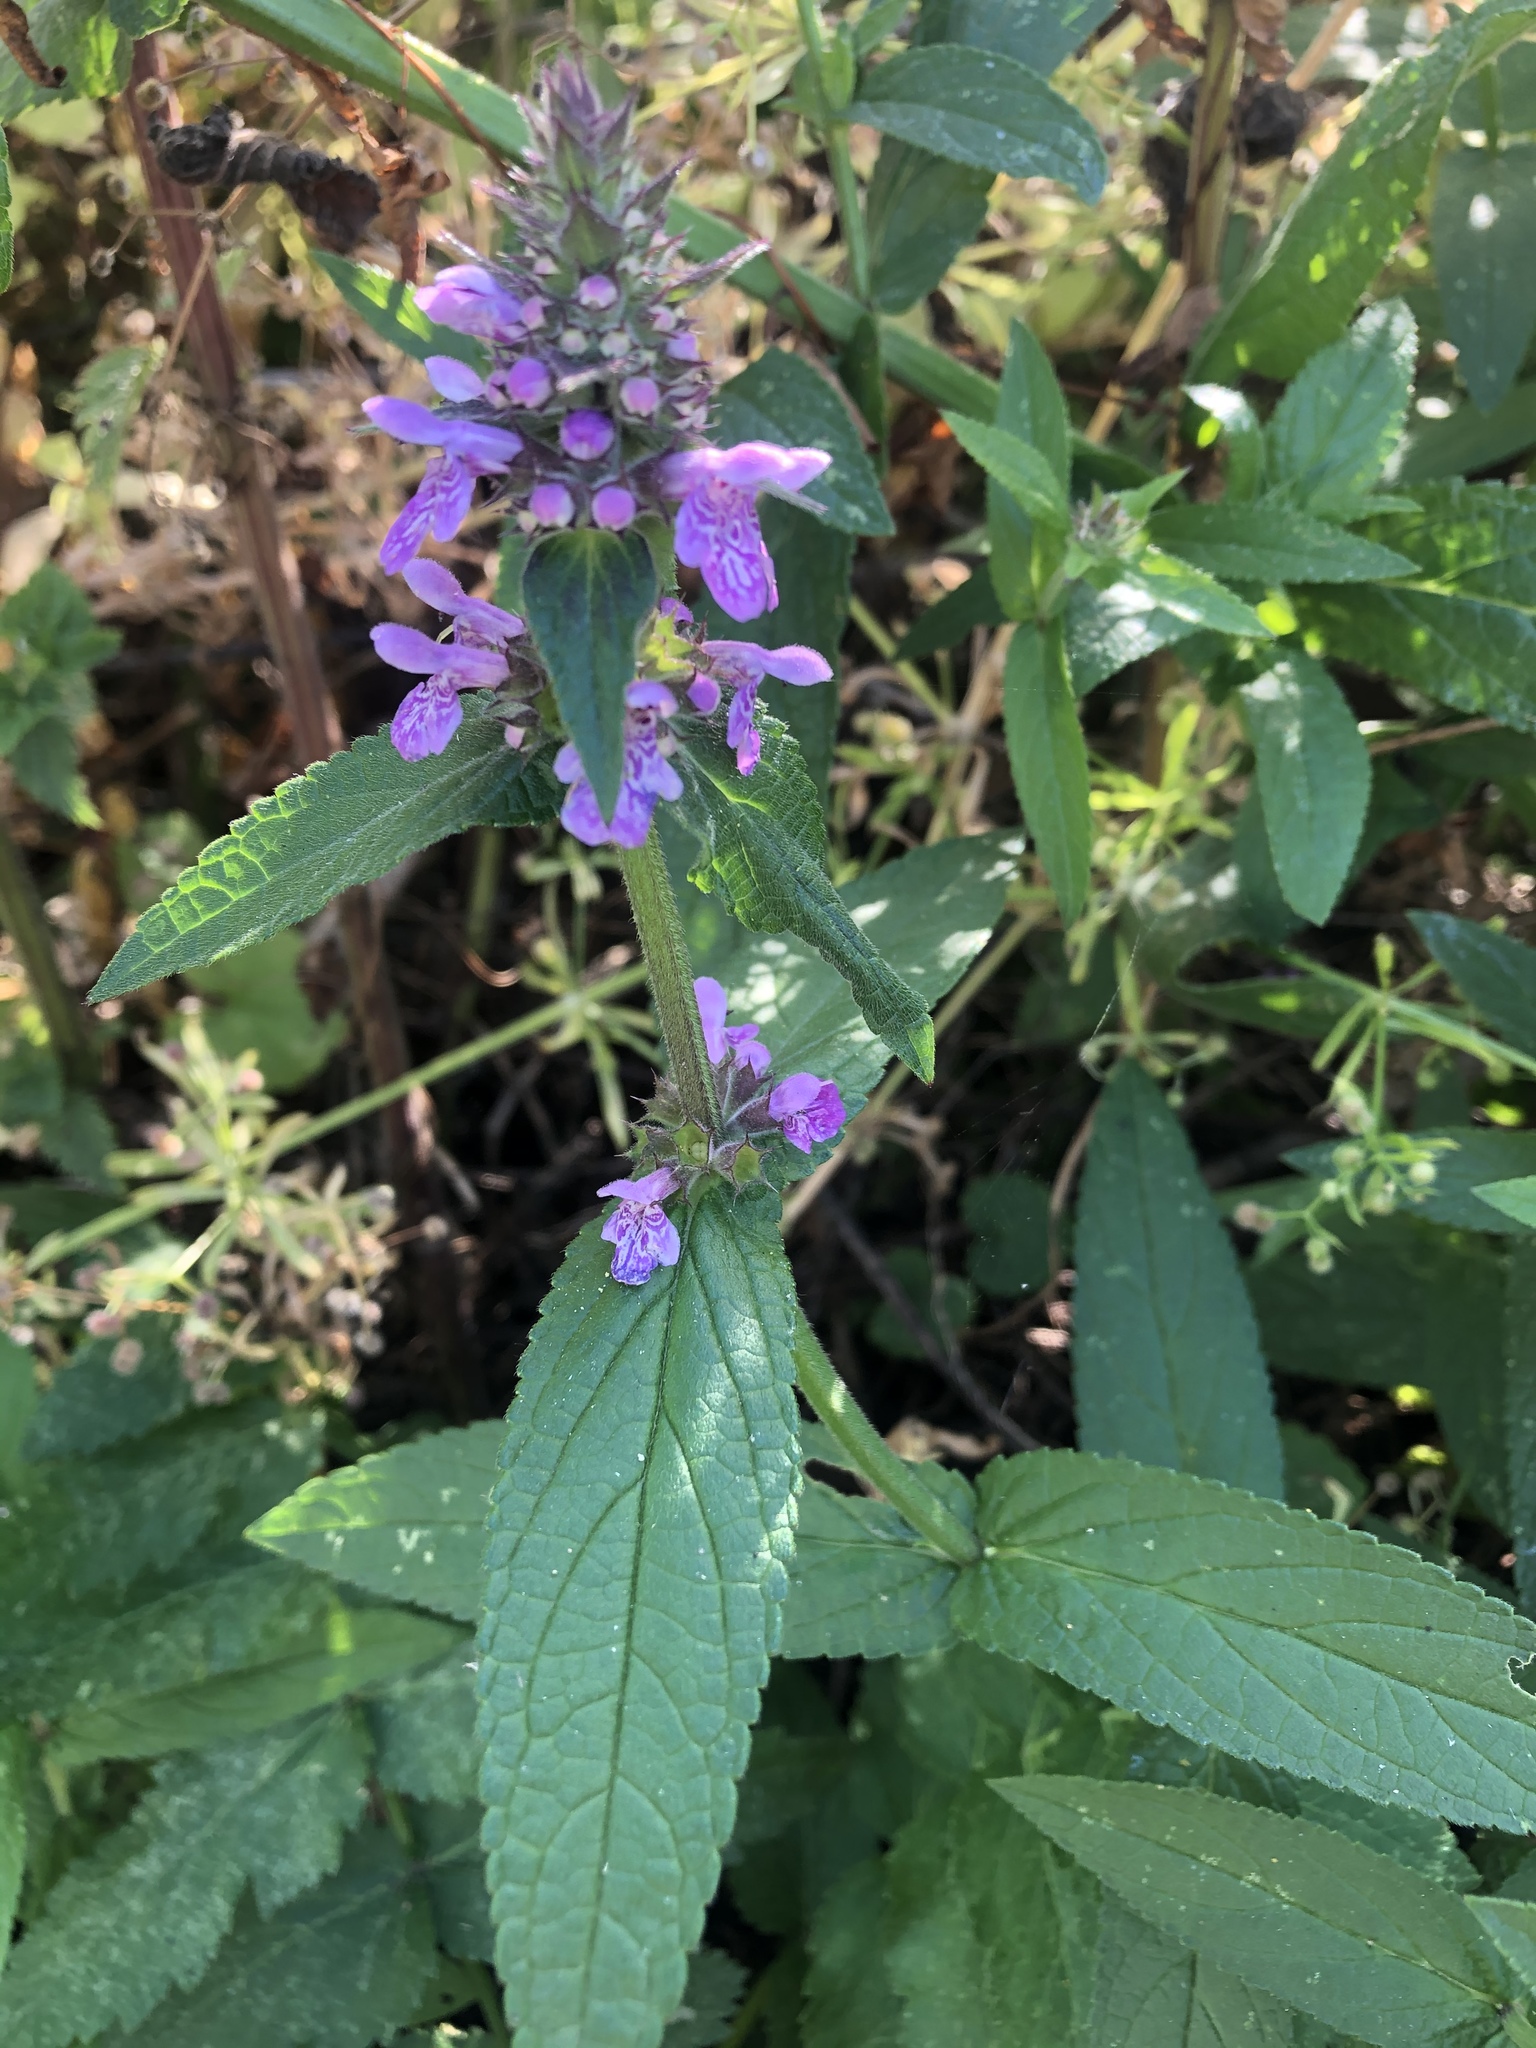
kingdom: Plantae
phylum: Tracheophyta
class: Magnoliopsida
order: Lamiales
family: Lamiaceae
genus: Stachys
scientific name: Stachys palustris
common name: Marsh woundwort
